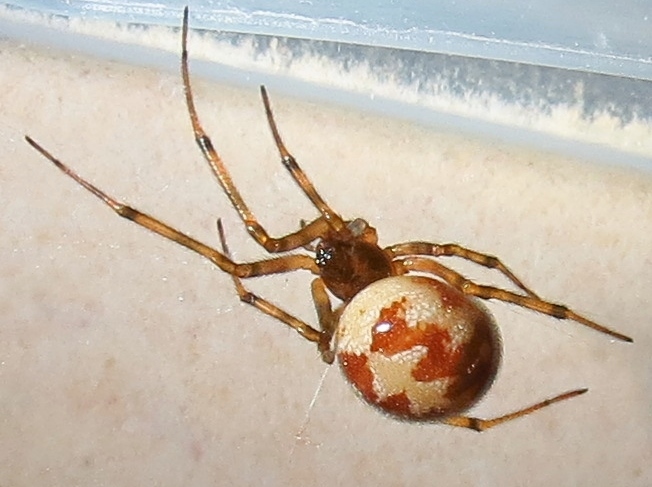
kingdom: Animalia
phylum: Arthropoda
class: Arachnida
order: Araneae
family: Theridiidae
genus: Steatoda
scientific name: Steatoda triangulosa
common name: Triangulate bud spider
